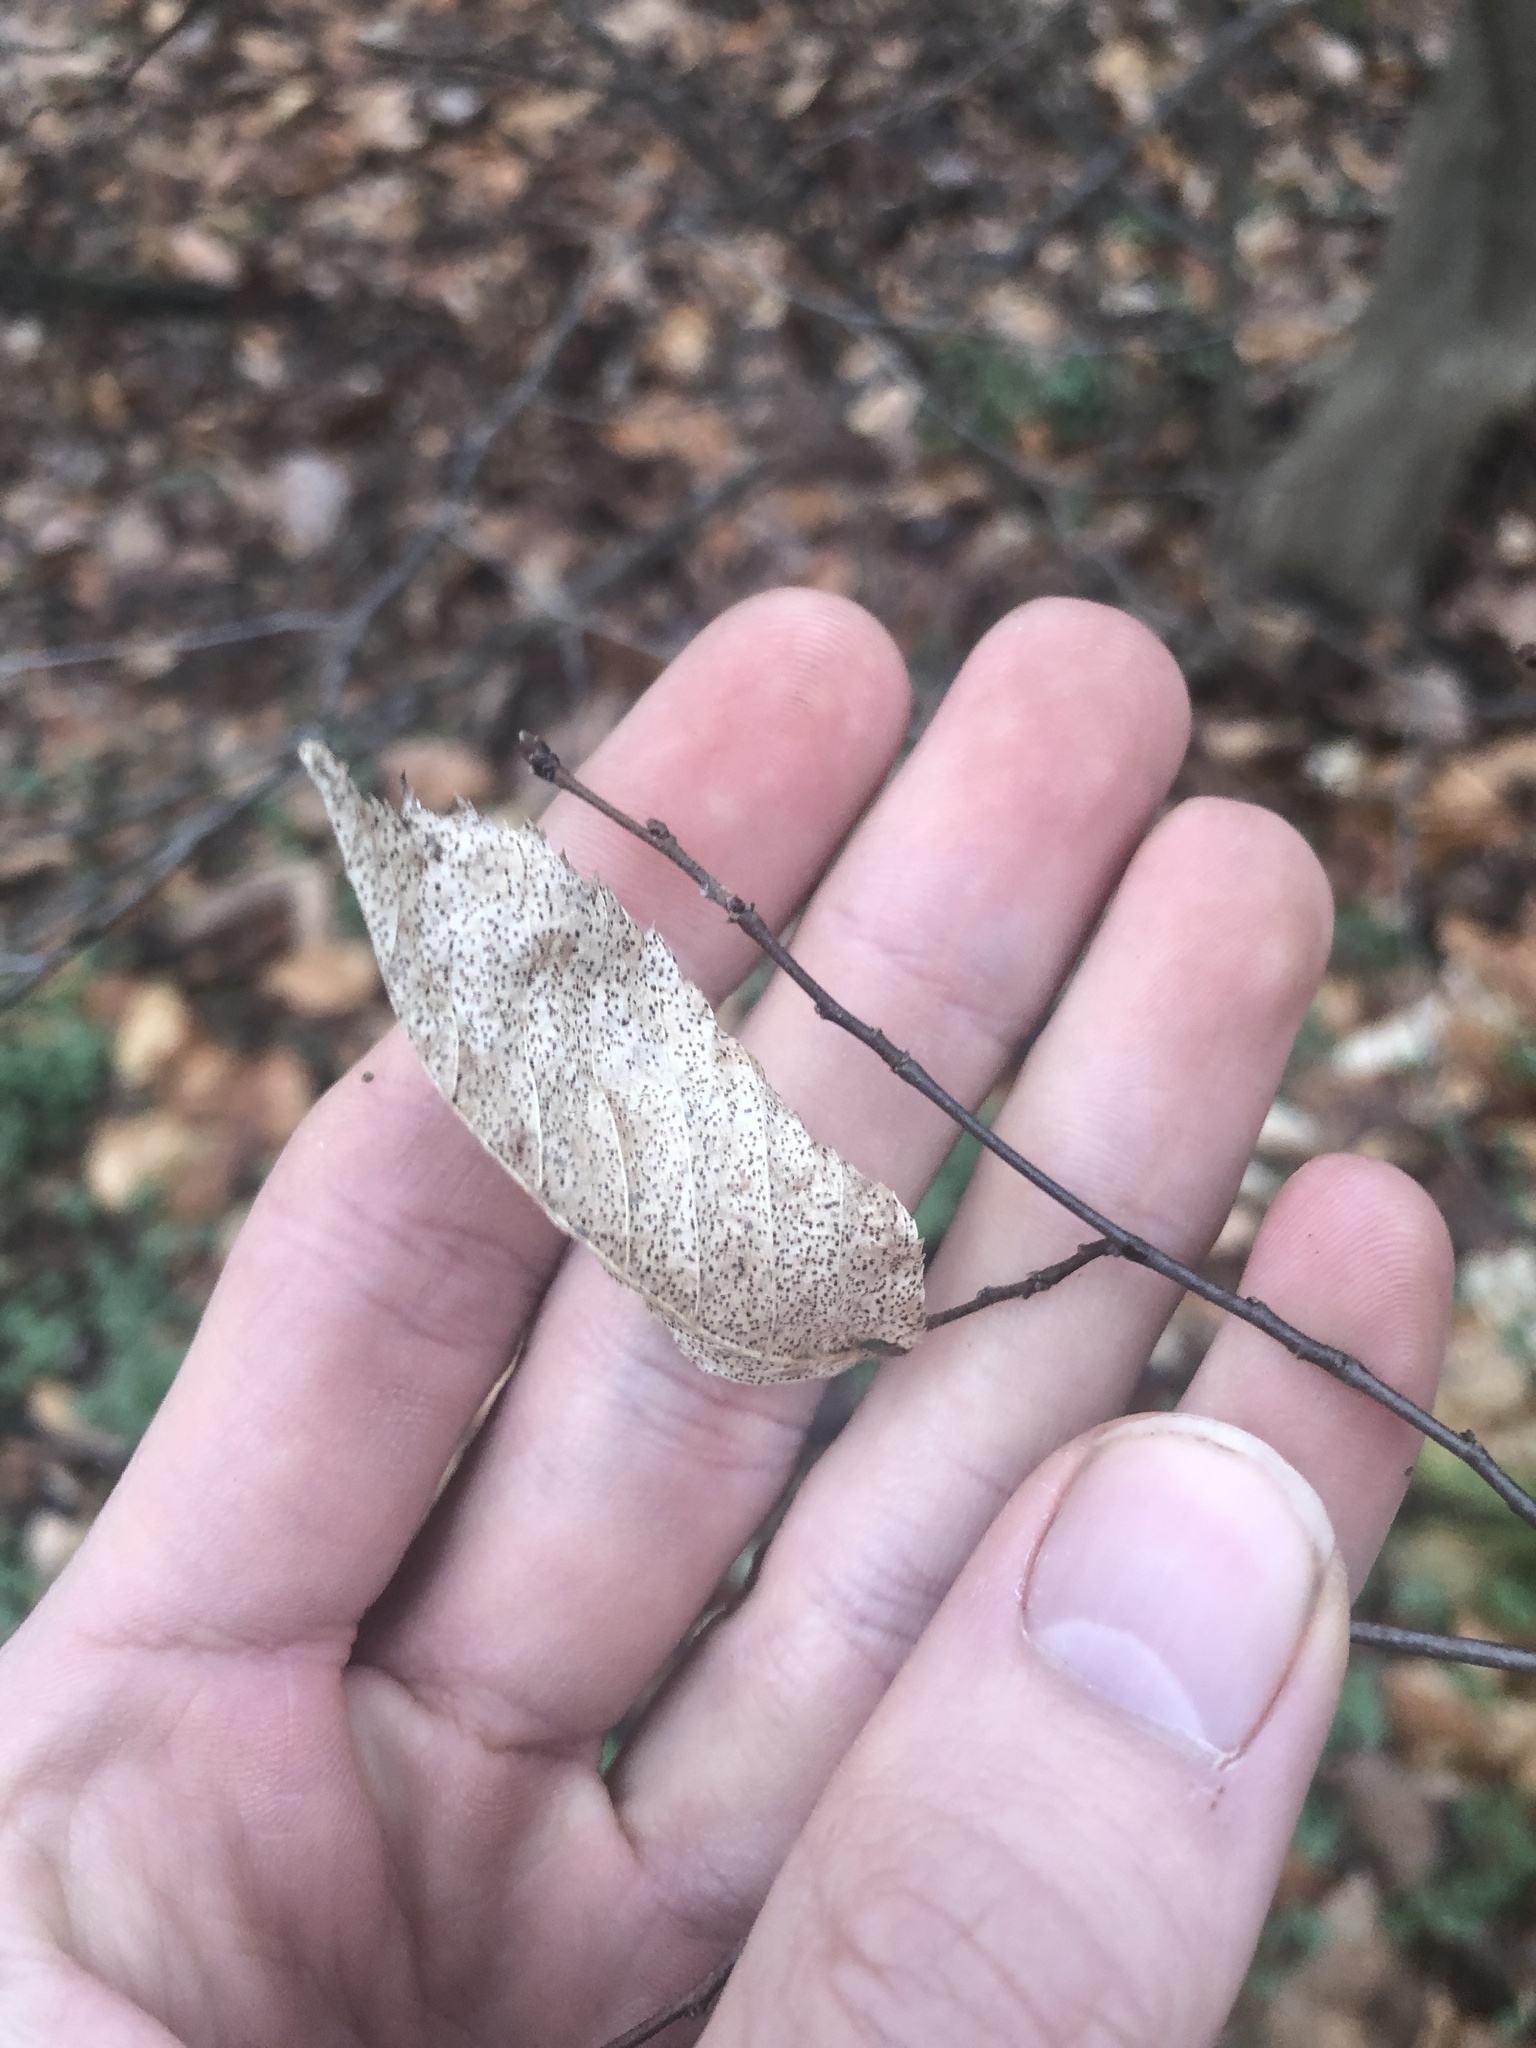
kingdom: Plantae
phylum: Tracheophyta
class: Magnoliopsida
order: Fagales
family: Betulaceae
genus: Carpinus
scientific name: Carpinus caroliniana
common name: American hornbeam
